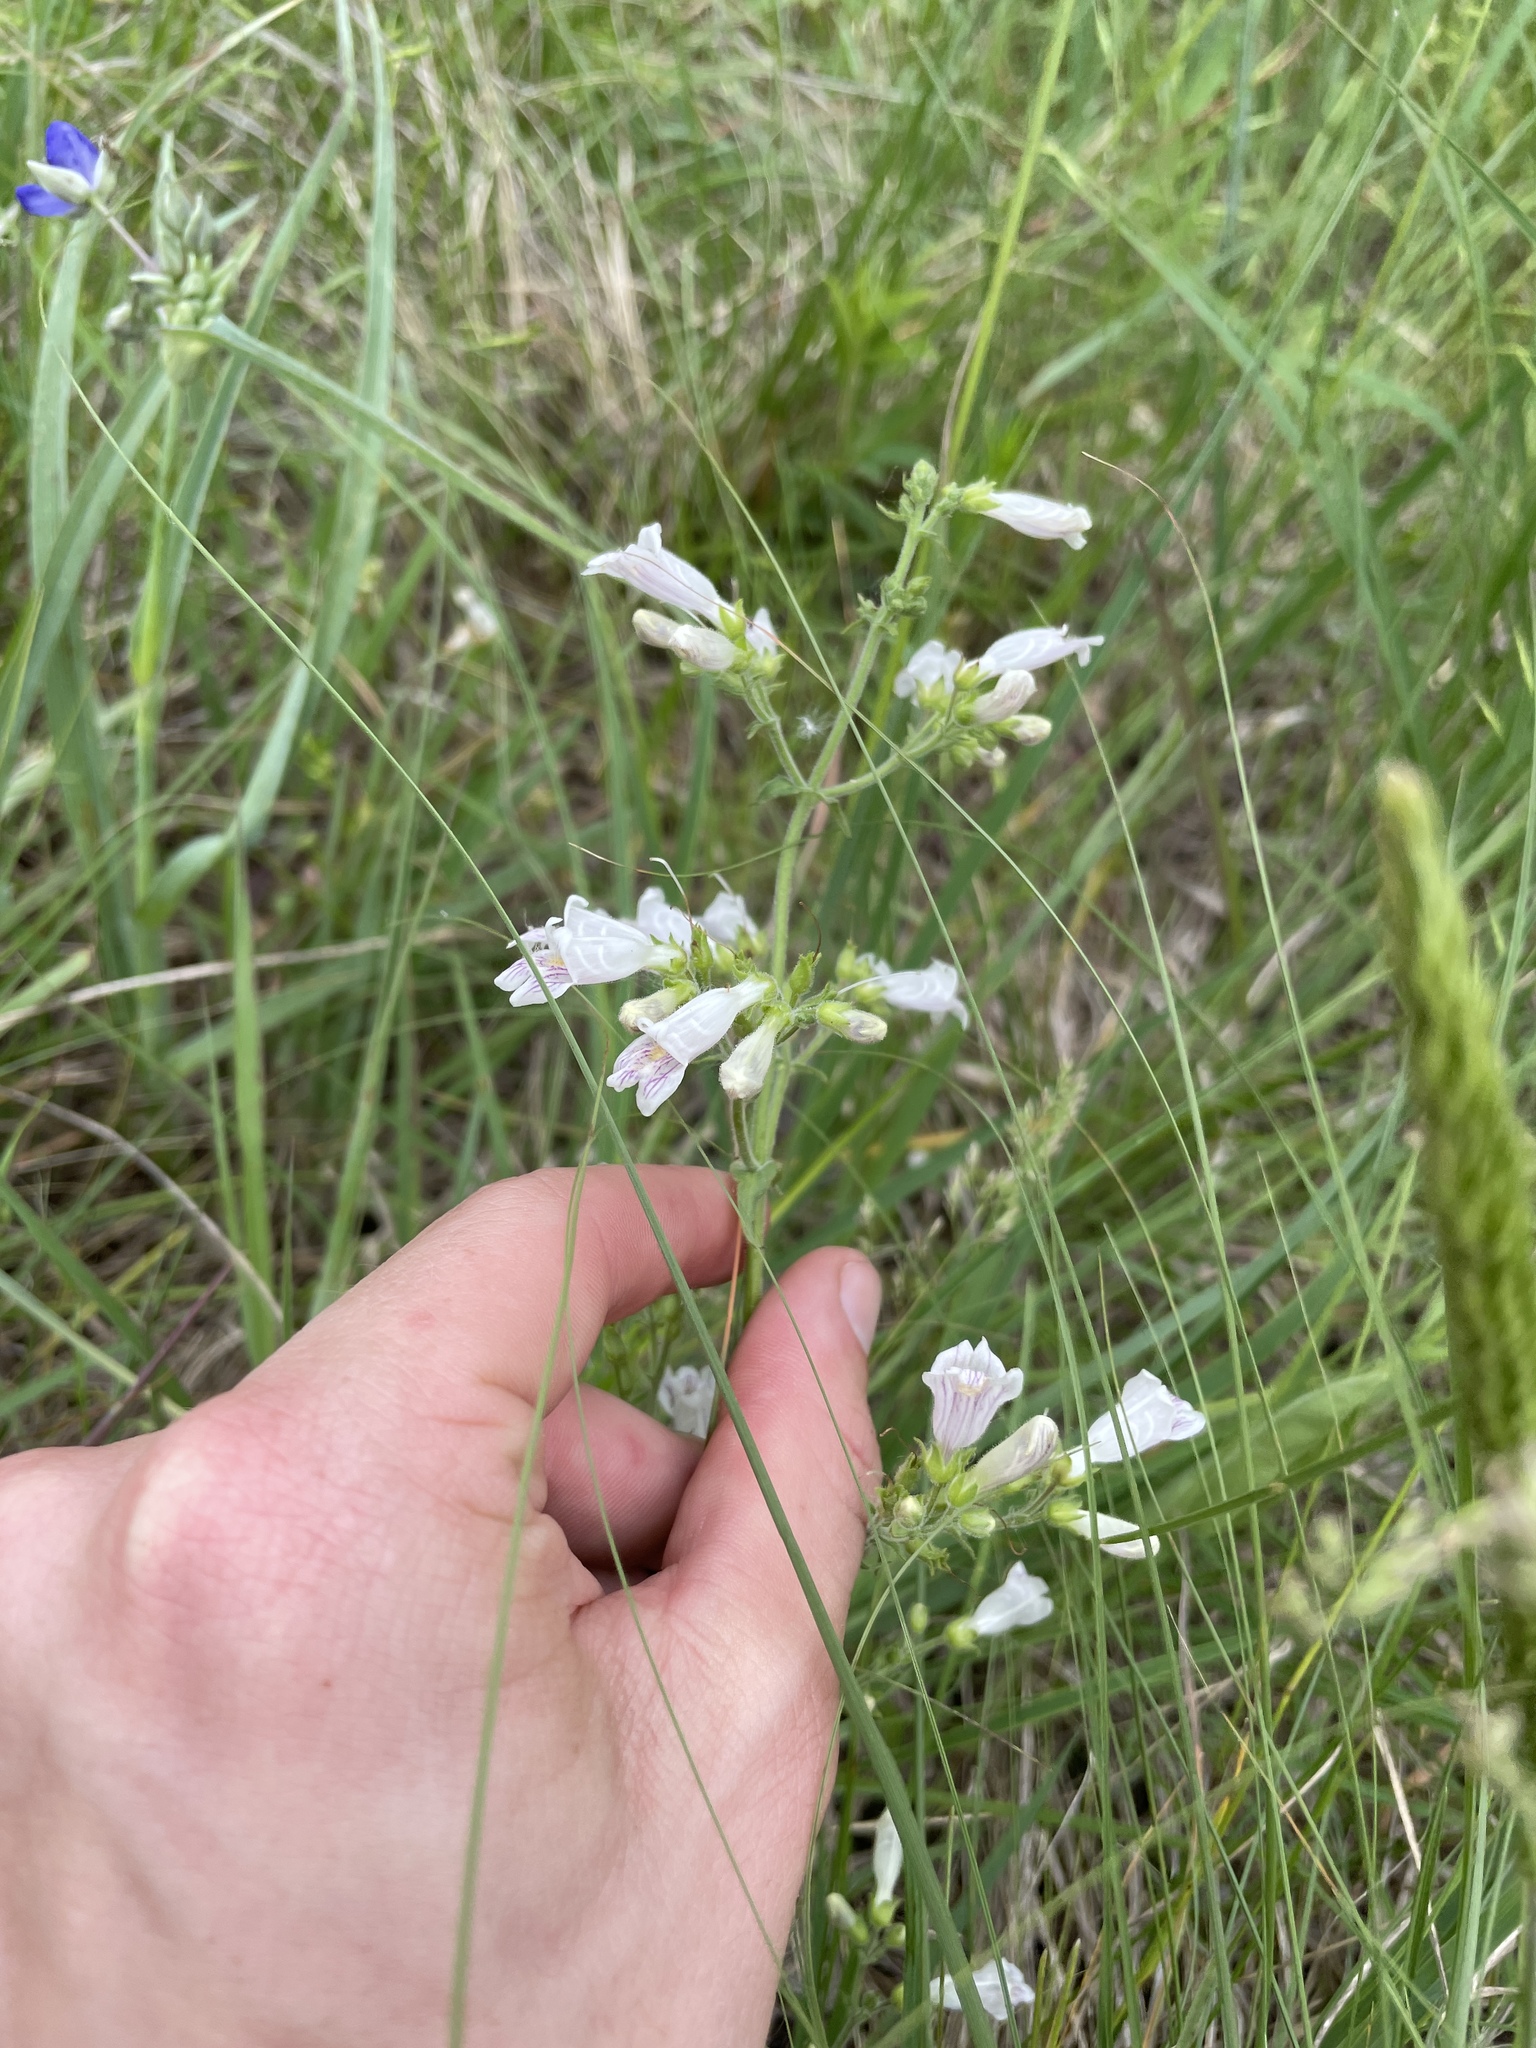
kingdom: Plantae
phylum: Tracheophyta
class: Magnoliopsida
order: Lamiales
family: Plantaginaceae
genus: Penstemon
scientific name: Penstemon pallidus
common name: Pale beardtongue
